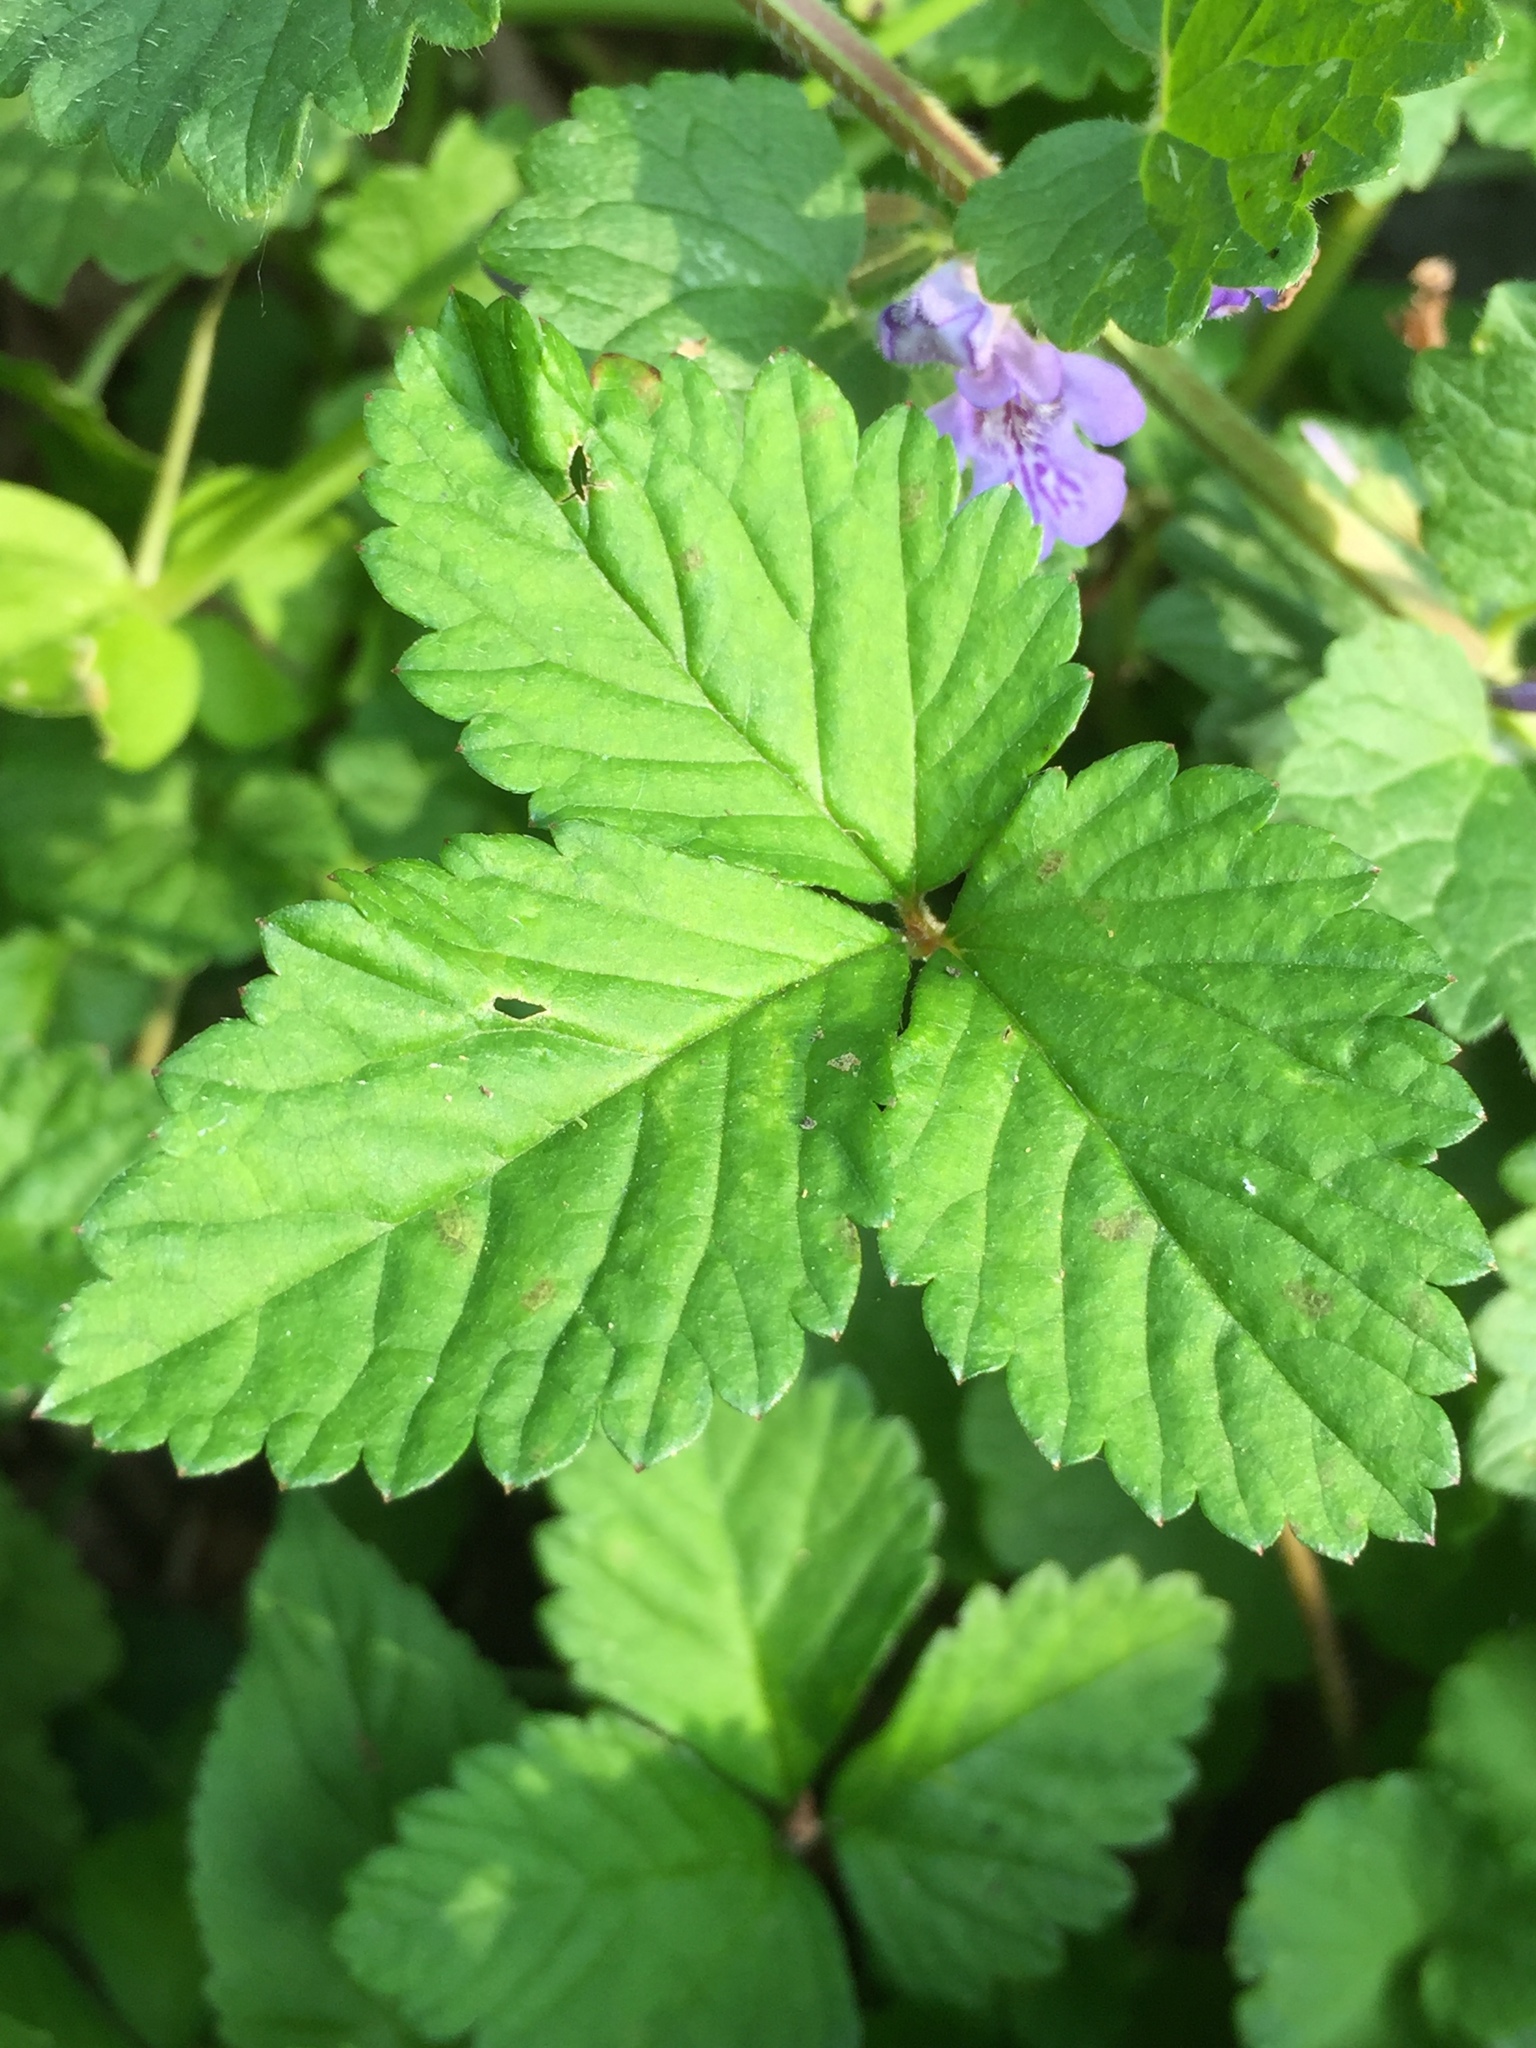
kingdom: Plantae
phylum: Tracheophyta
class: Magnoliopsida
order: Rosales
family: Rosaceae
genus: Potentilla
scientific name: Potentilla indica
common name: Yellow-flowered strawberry
